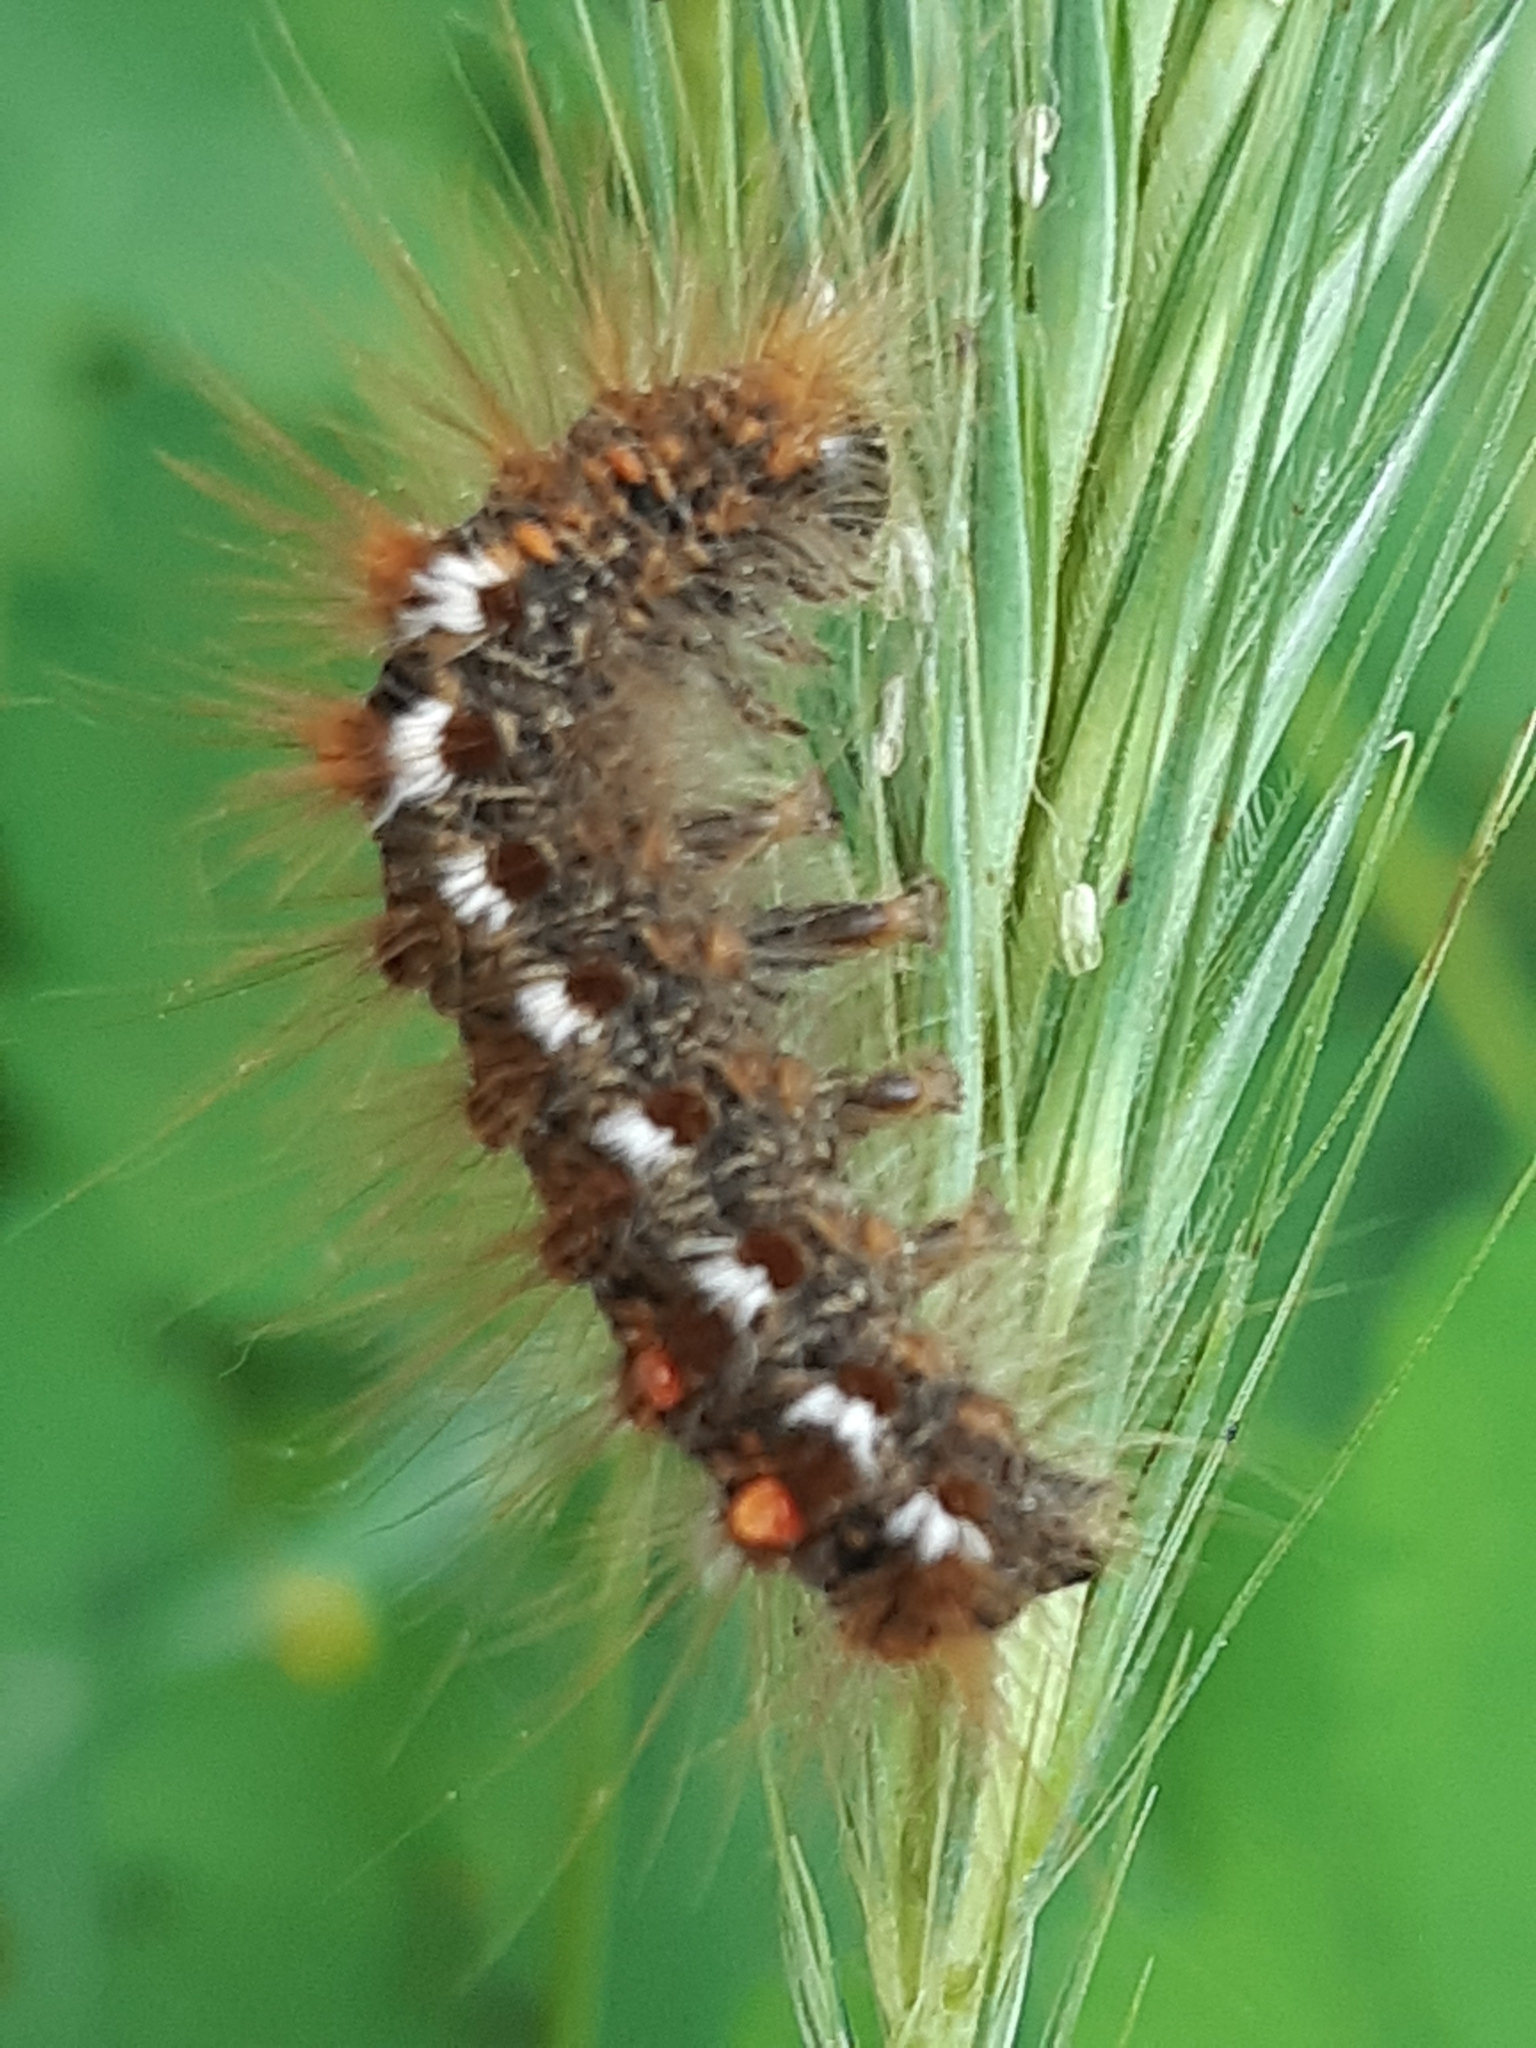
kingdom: Animalia
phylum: Arthropoda
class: Insecta
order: Lepidoptera
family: Erebidae
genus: Euproctis
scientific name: Euproctis chrysorrhoea
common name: Brown-tail
